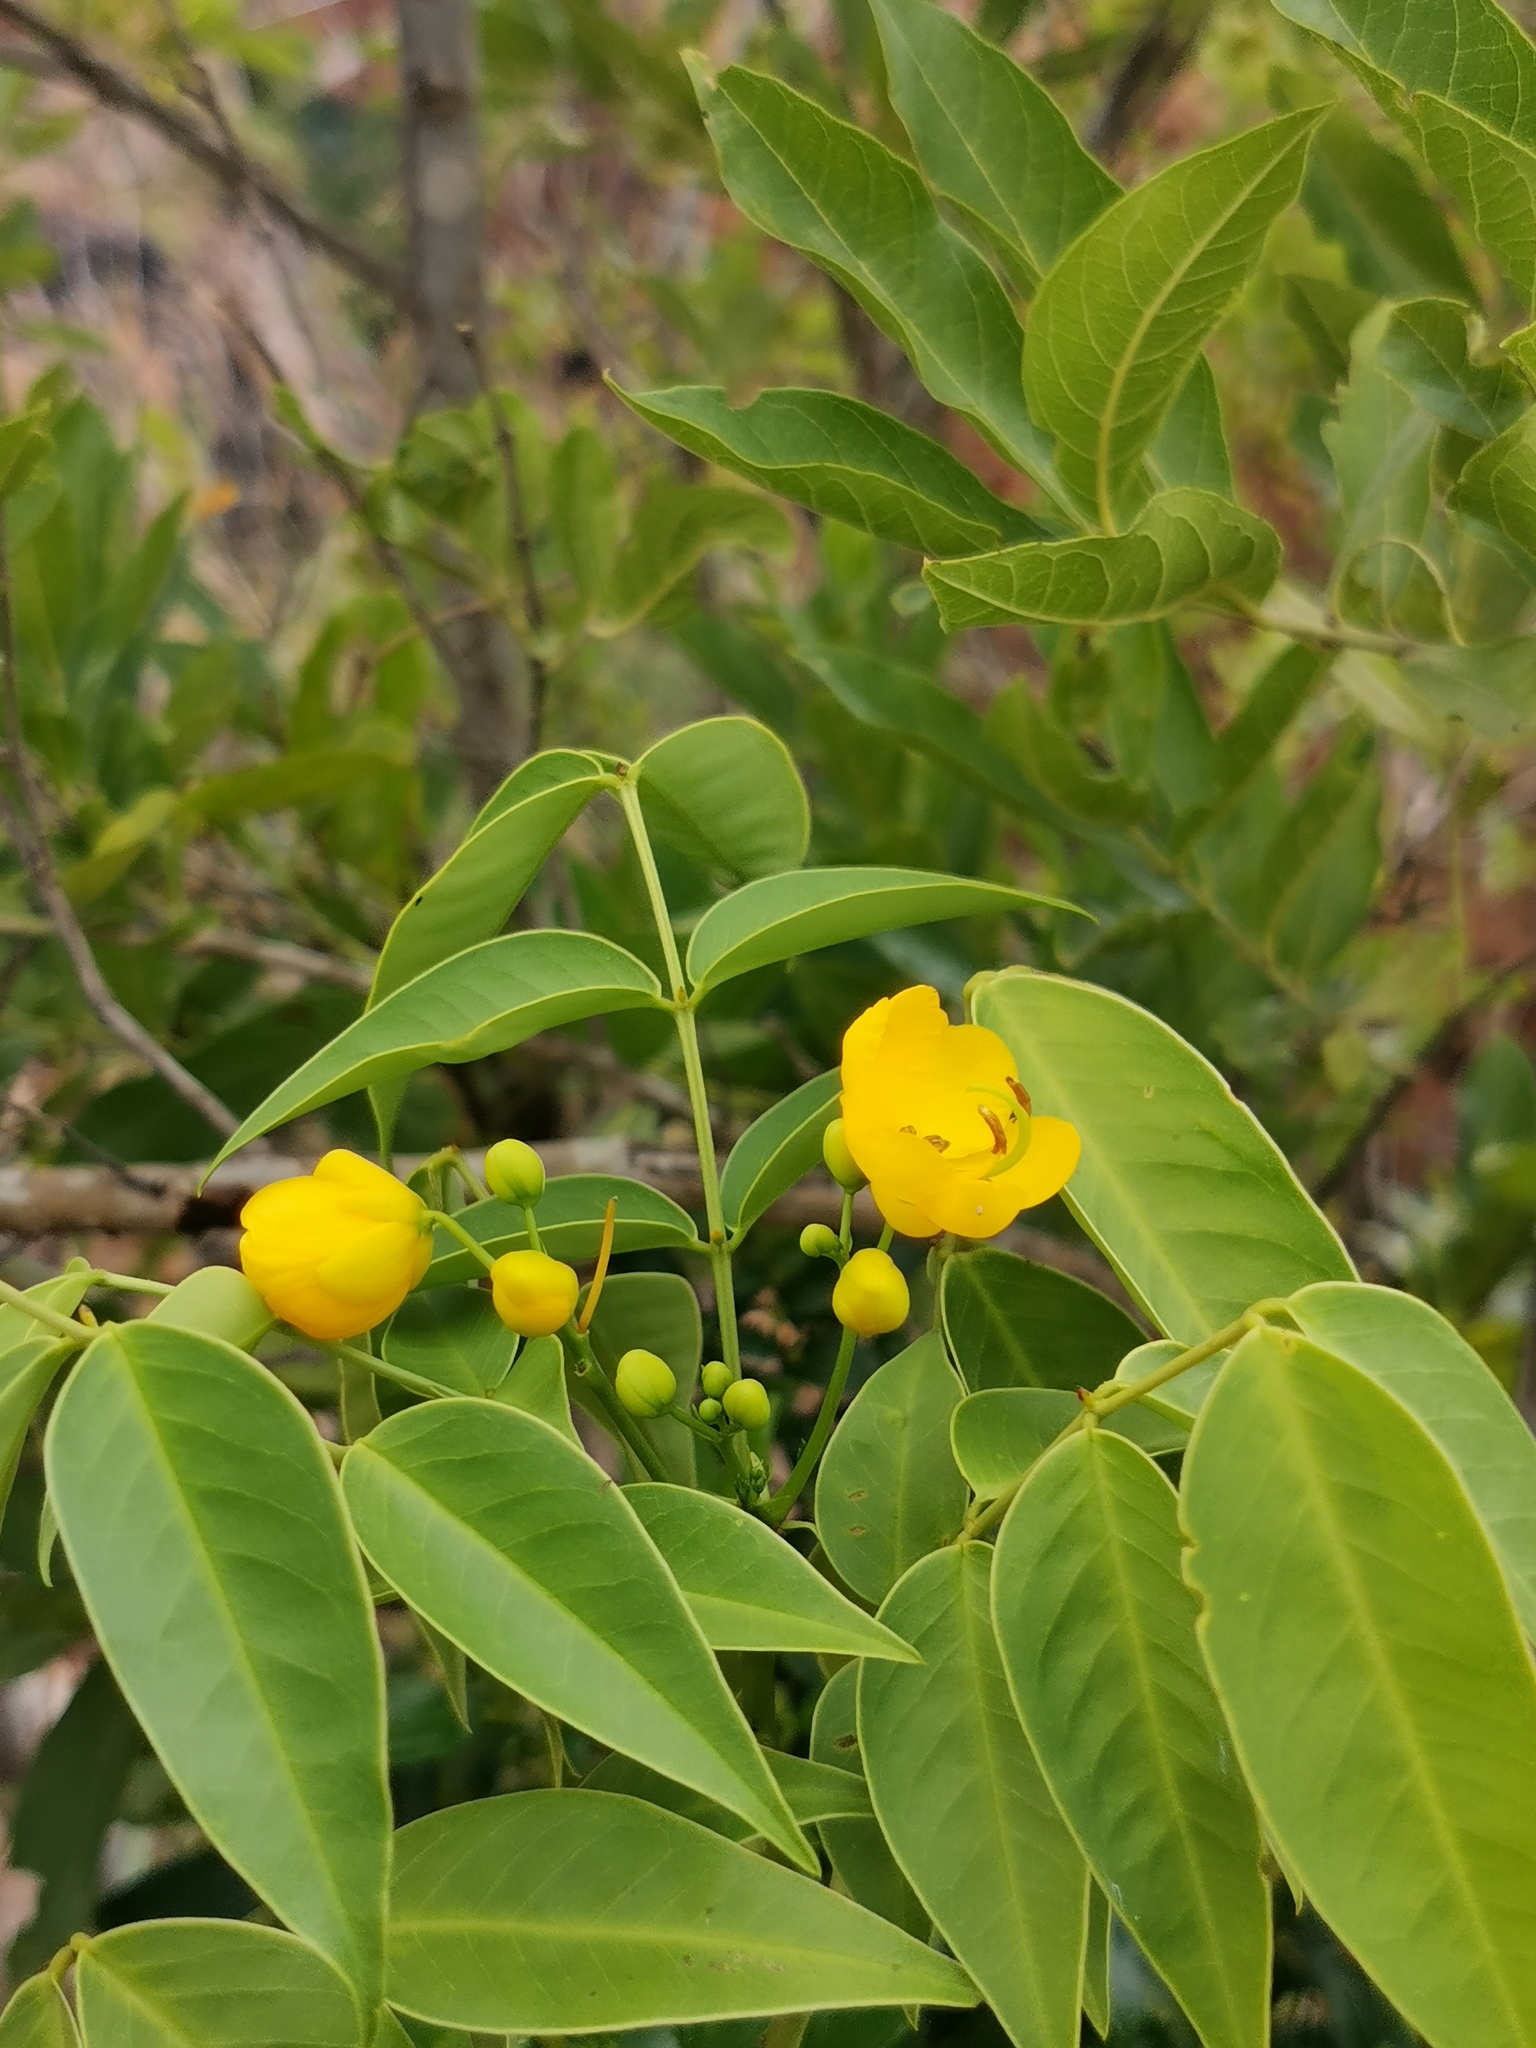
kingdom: Plantae
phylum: Tracheophyta
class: Magnoliopsida
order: Fabales
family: Fabaceae
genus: Senna
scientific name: Senna septemtrionalis
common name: Arsenic bush
